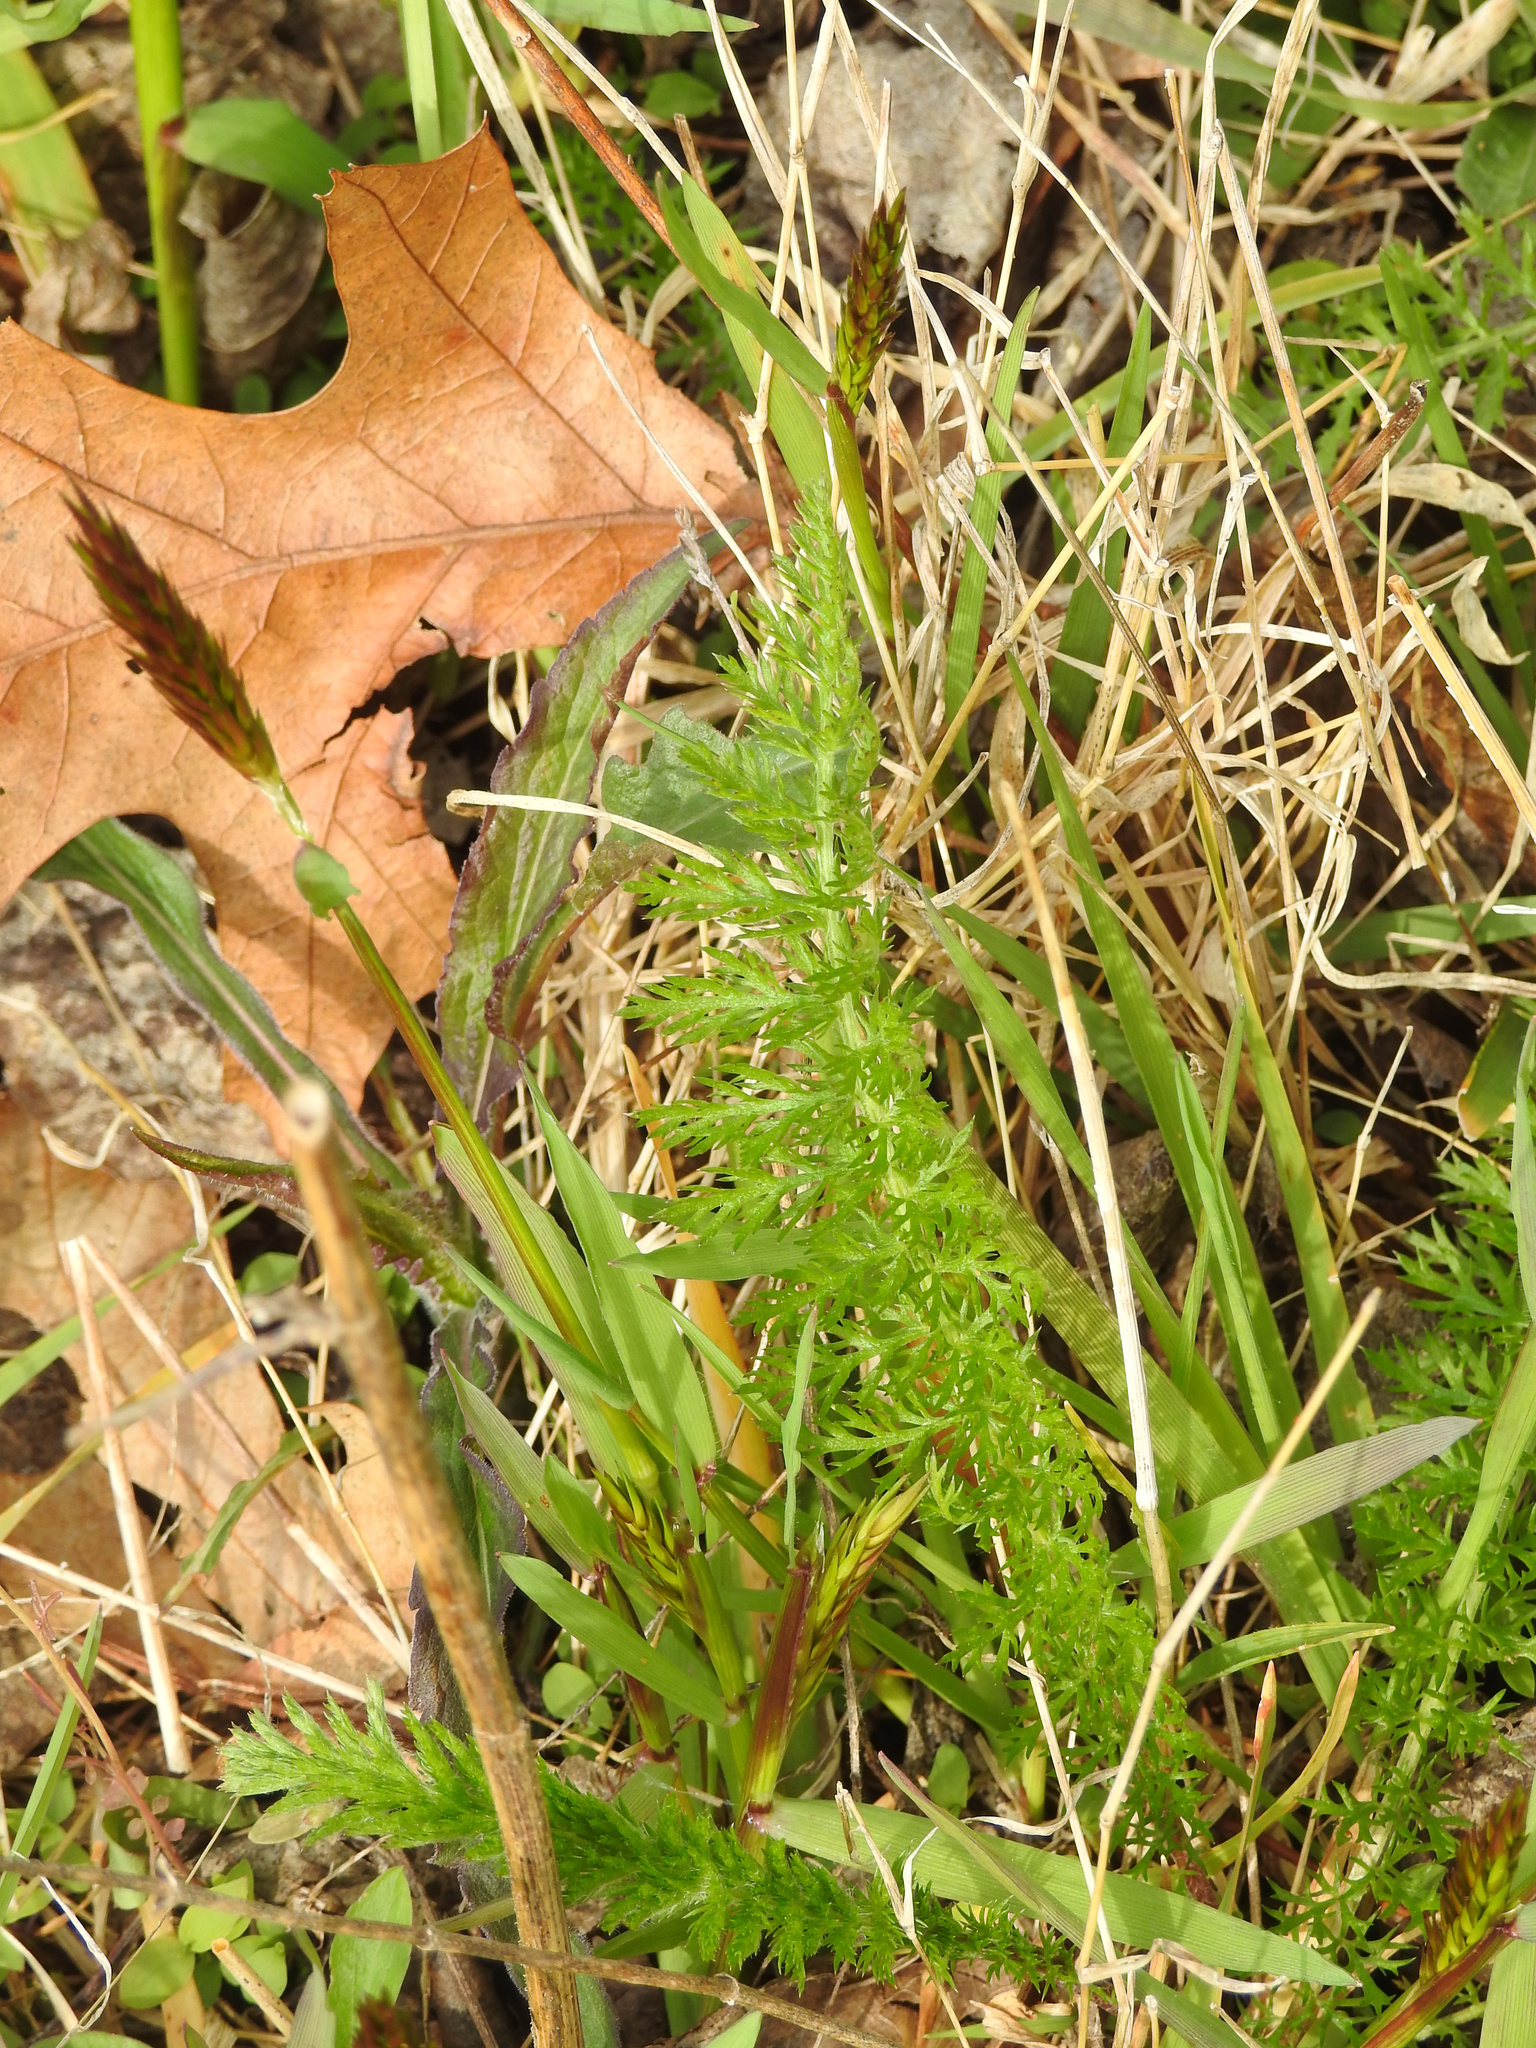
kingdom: Plantae
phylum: Tracheophyta
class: Magnoliopsida
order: Asterales
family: Asteraceae
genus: Achillea
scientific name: Achillea millefolium
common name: Yarrow
